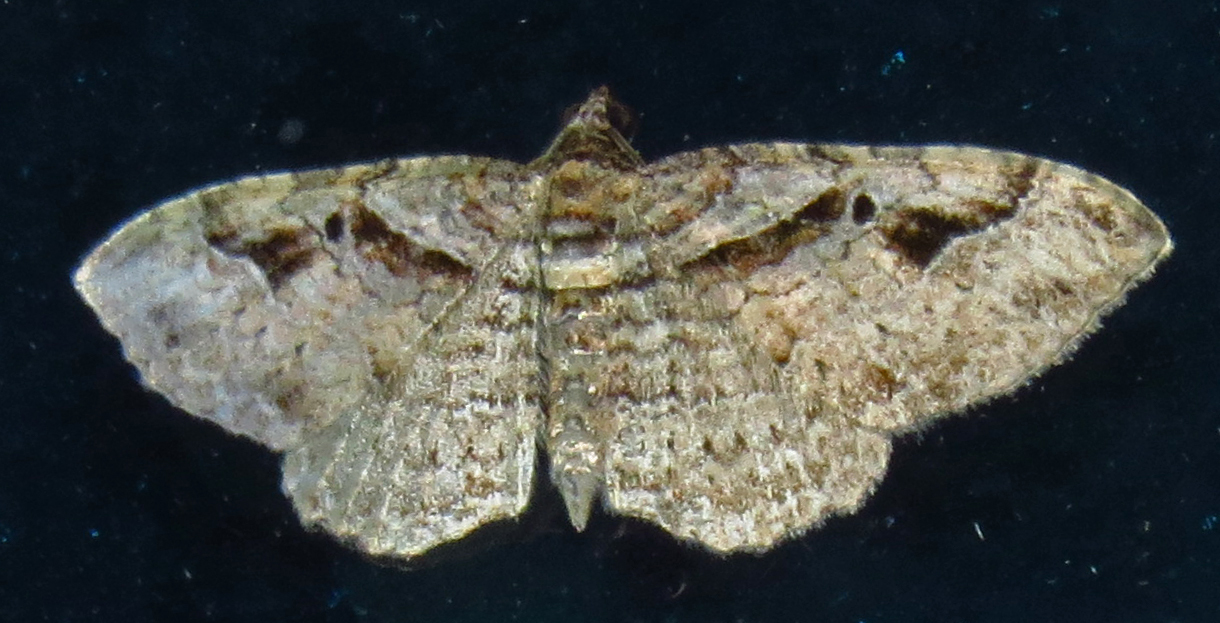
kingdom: Animalia
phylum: Arthropoda
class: Insecta
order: Lepidoptera
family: Geometridae
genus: Costaconvexa
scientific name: Costaconvexa centrostrigaria
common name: Bent-line carpet
